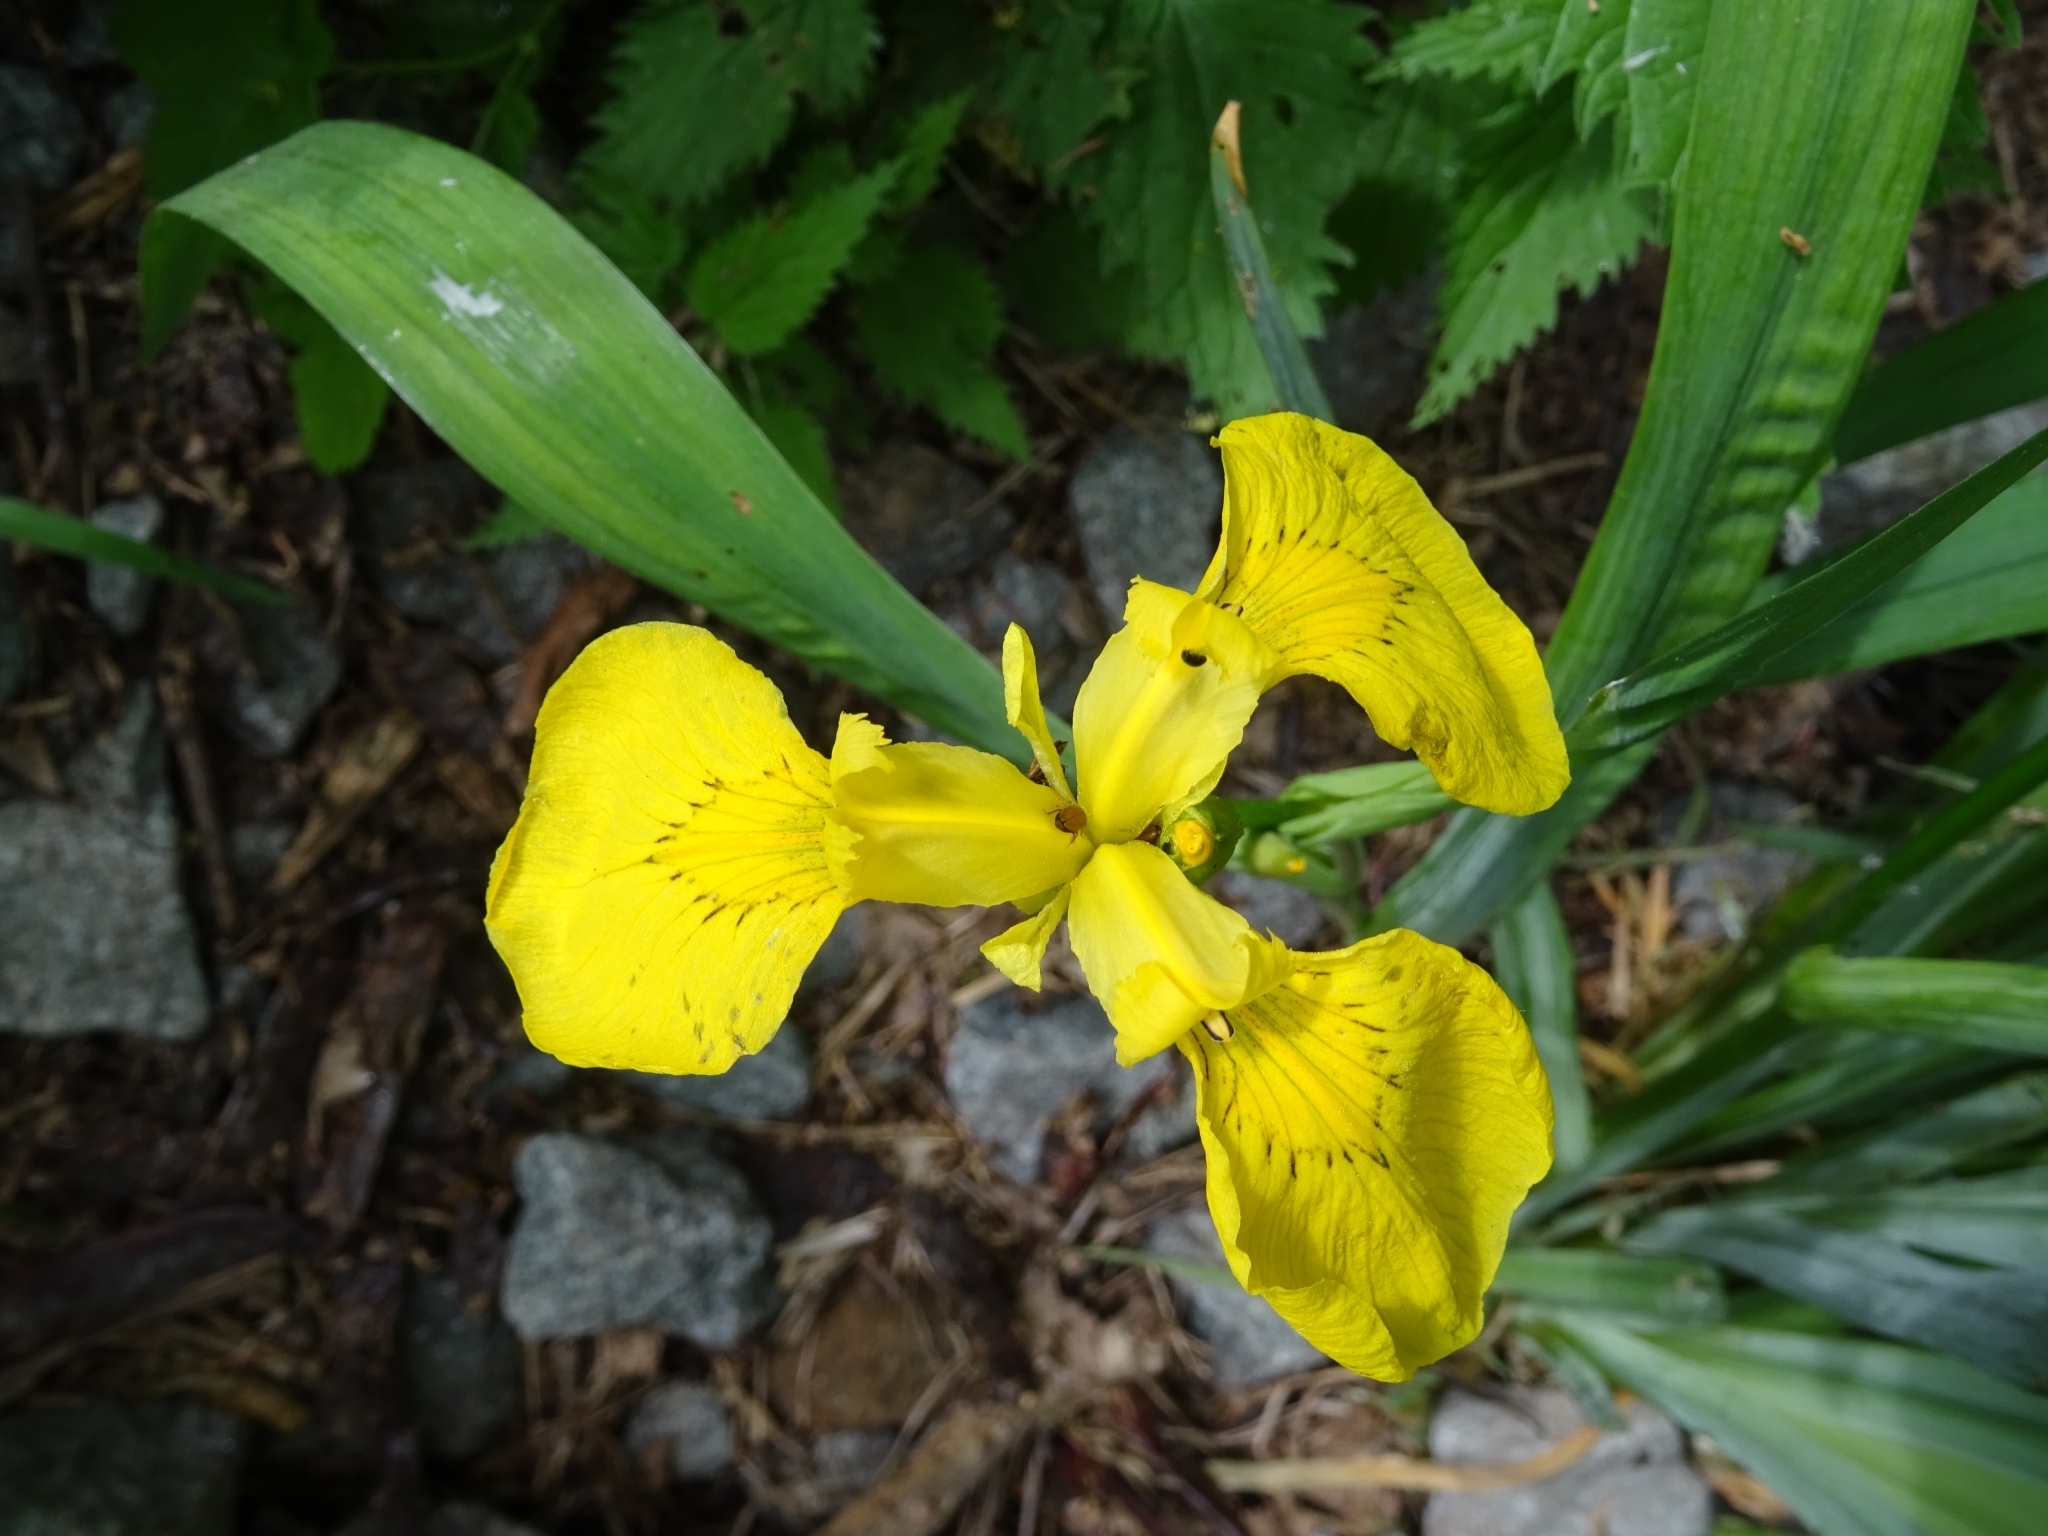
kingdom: Plantae
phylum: Tracheophyta
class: Liliopsida
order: Asparagales
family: Iridaceae
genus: Iris
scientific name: Iris pseudacorus
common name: Yellow flag
